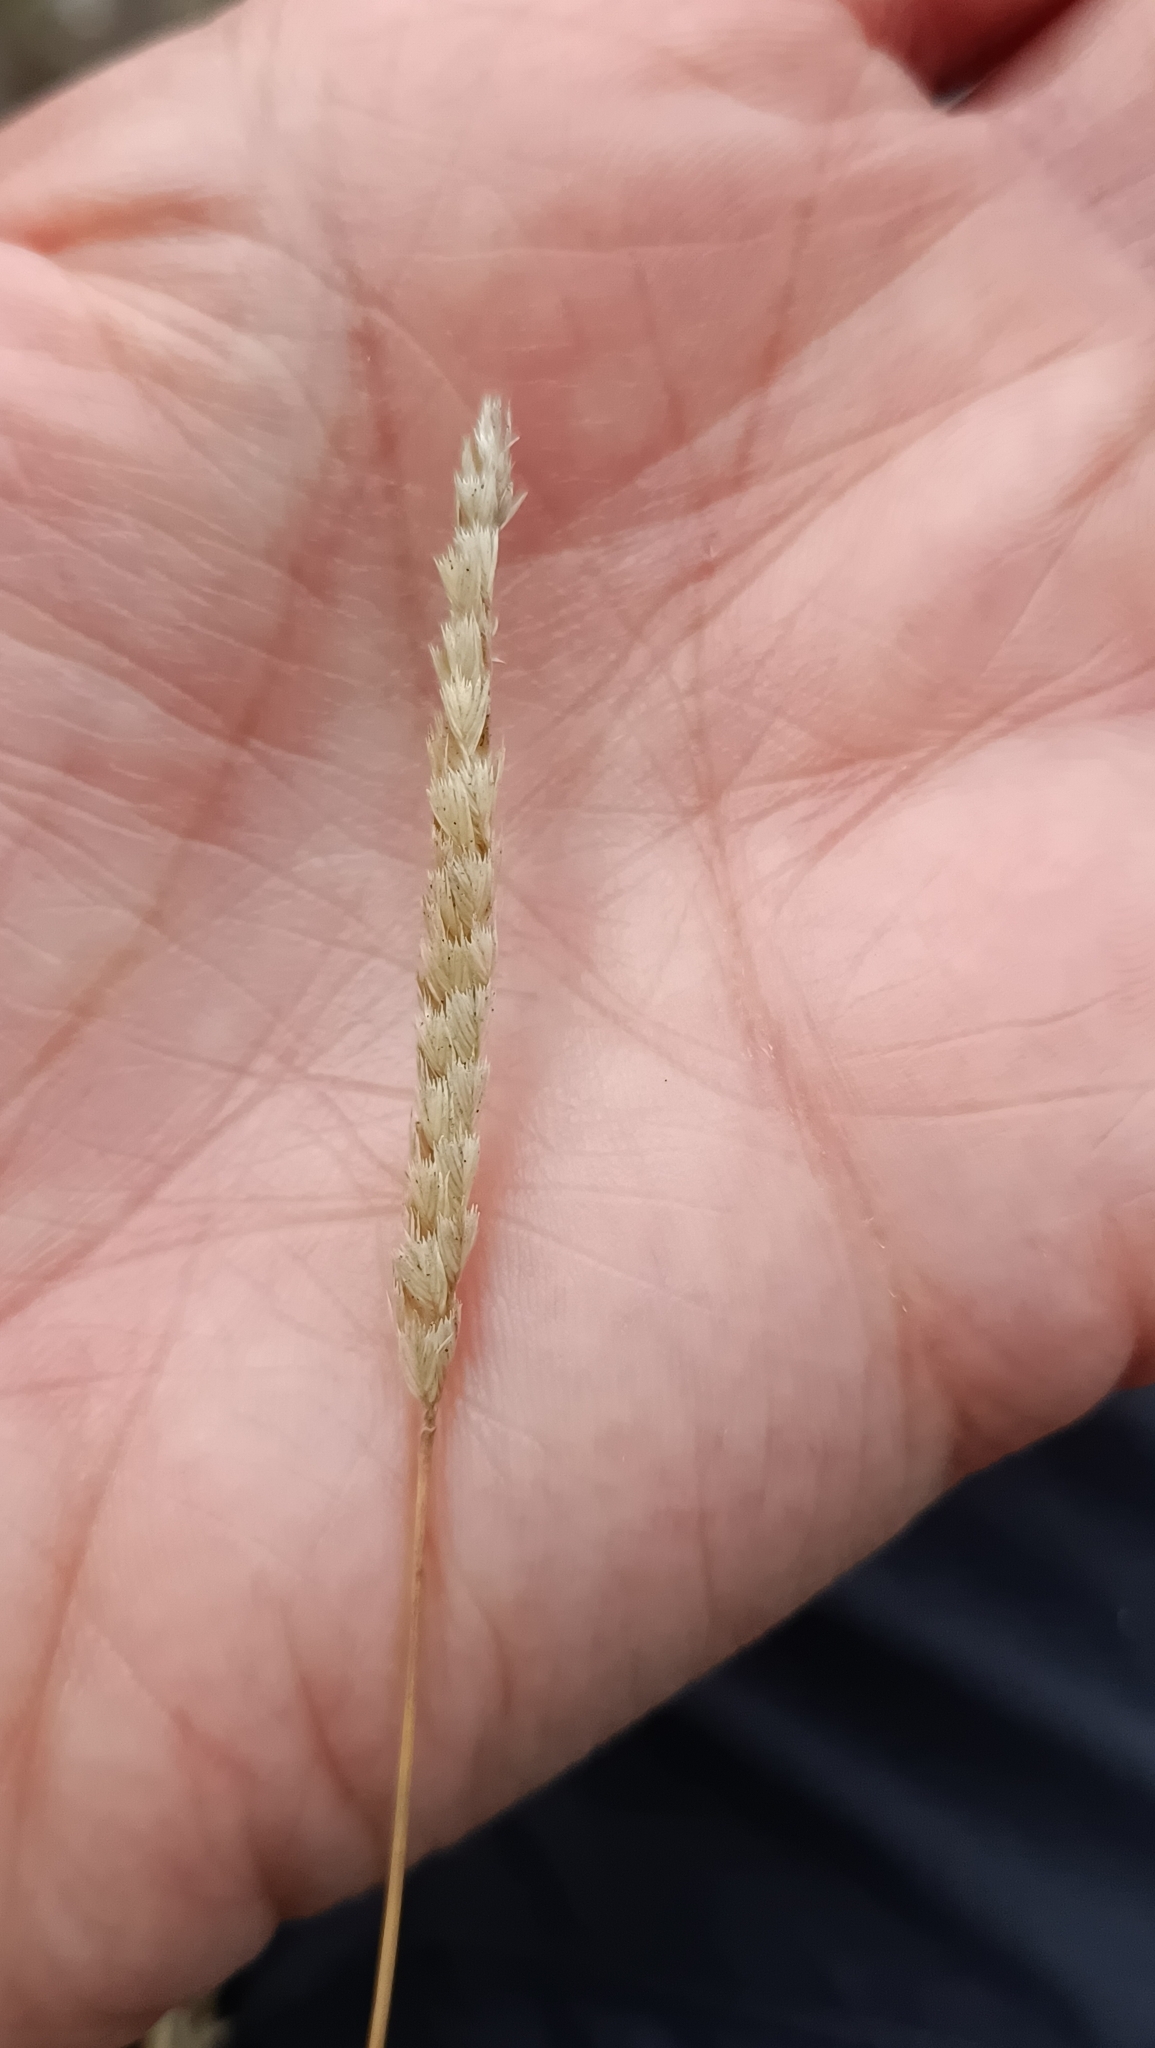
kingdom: Plantae
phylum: Tracheophyta
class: Liliopsida
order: Poales
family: Poaceae
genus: Cynosurus
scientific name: Cynosurus cristatus
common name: Crested dog's-tail
